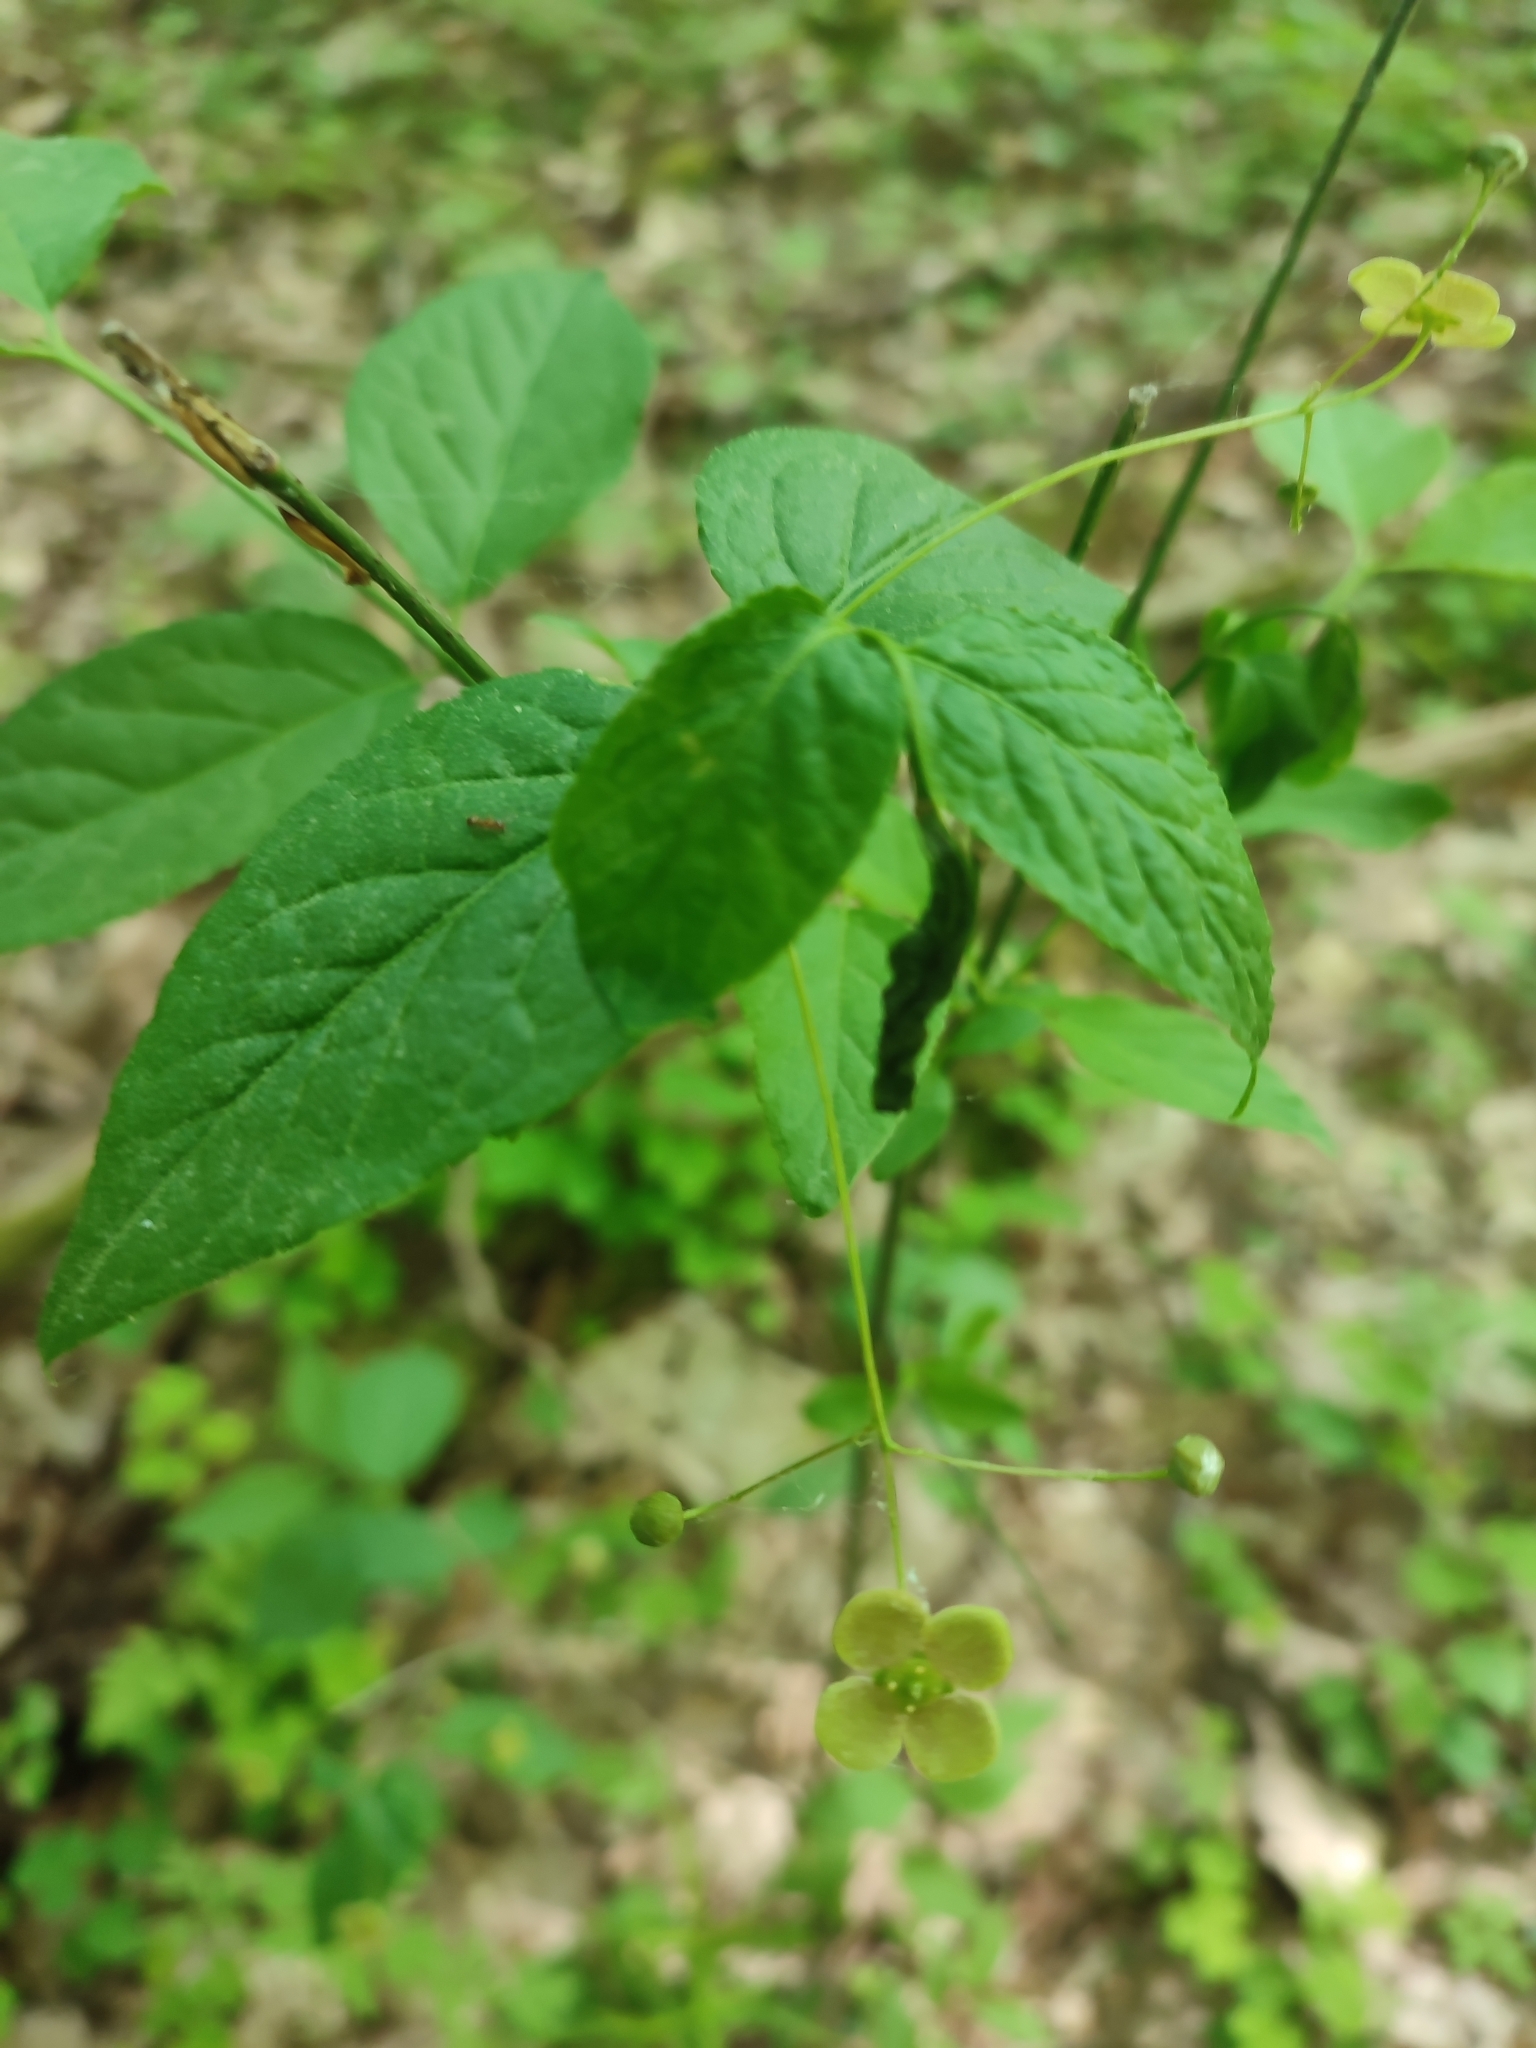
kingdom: Plantae
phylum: Tracheophyta
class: Magnoliopsida
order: Celastrales
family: Celastraceae
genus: Euonymus
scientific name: Euonymus verrucosus
